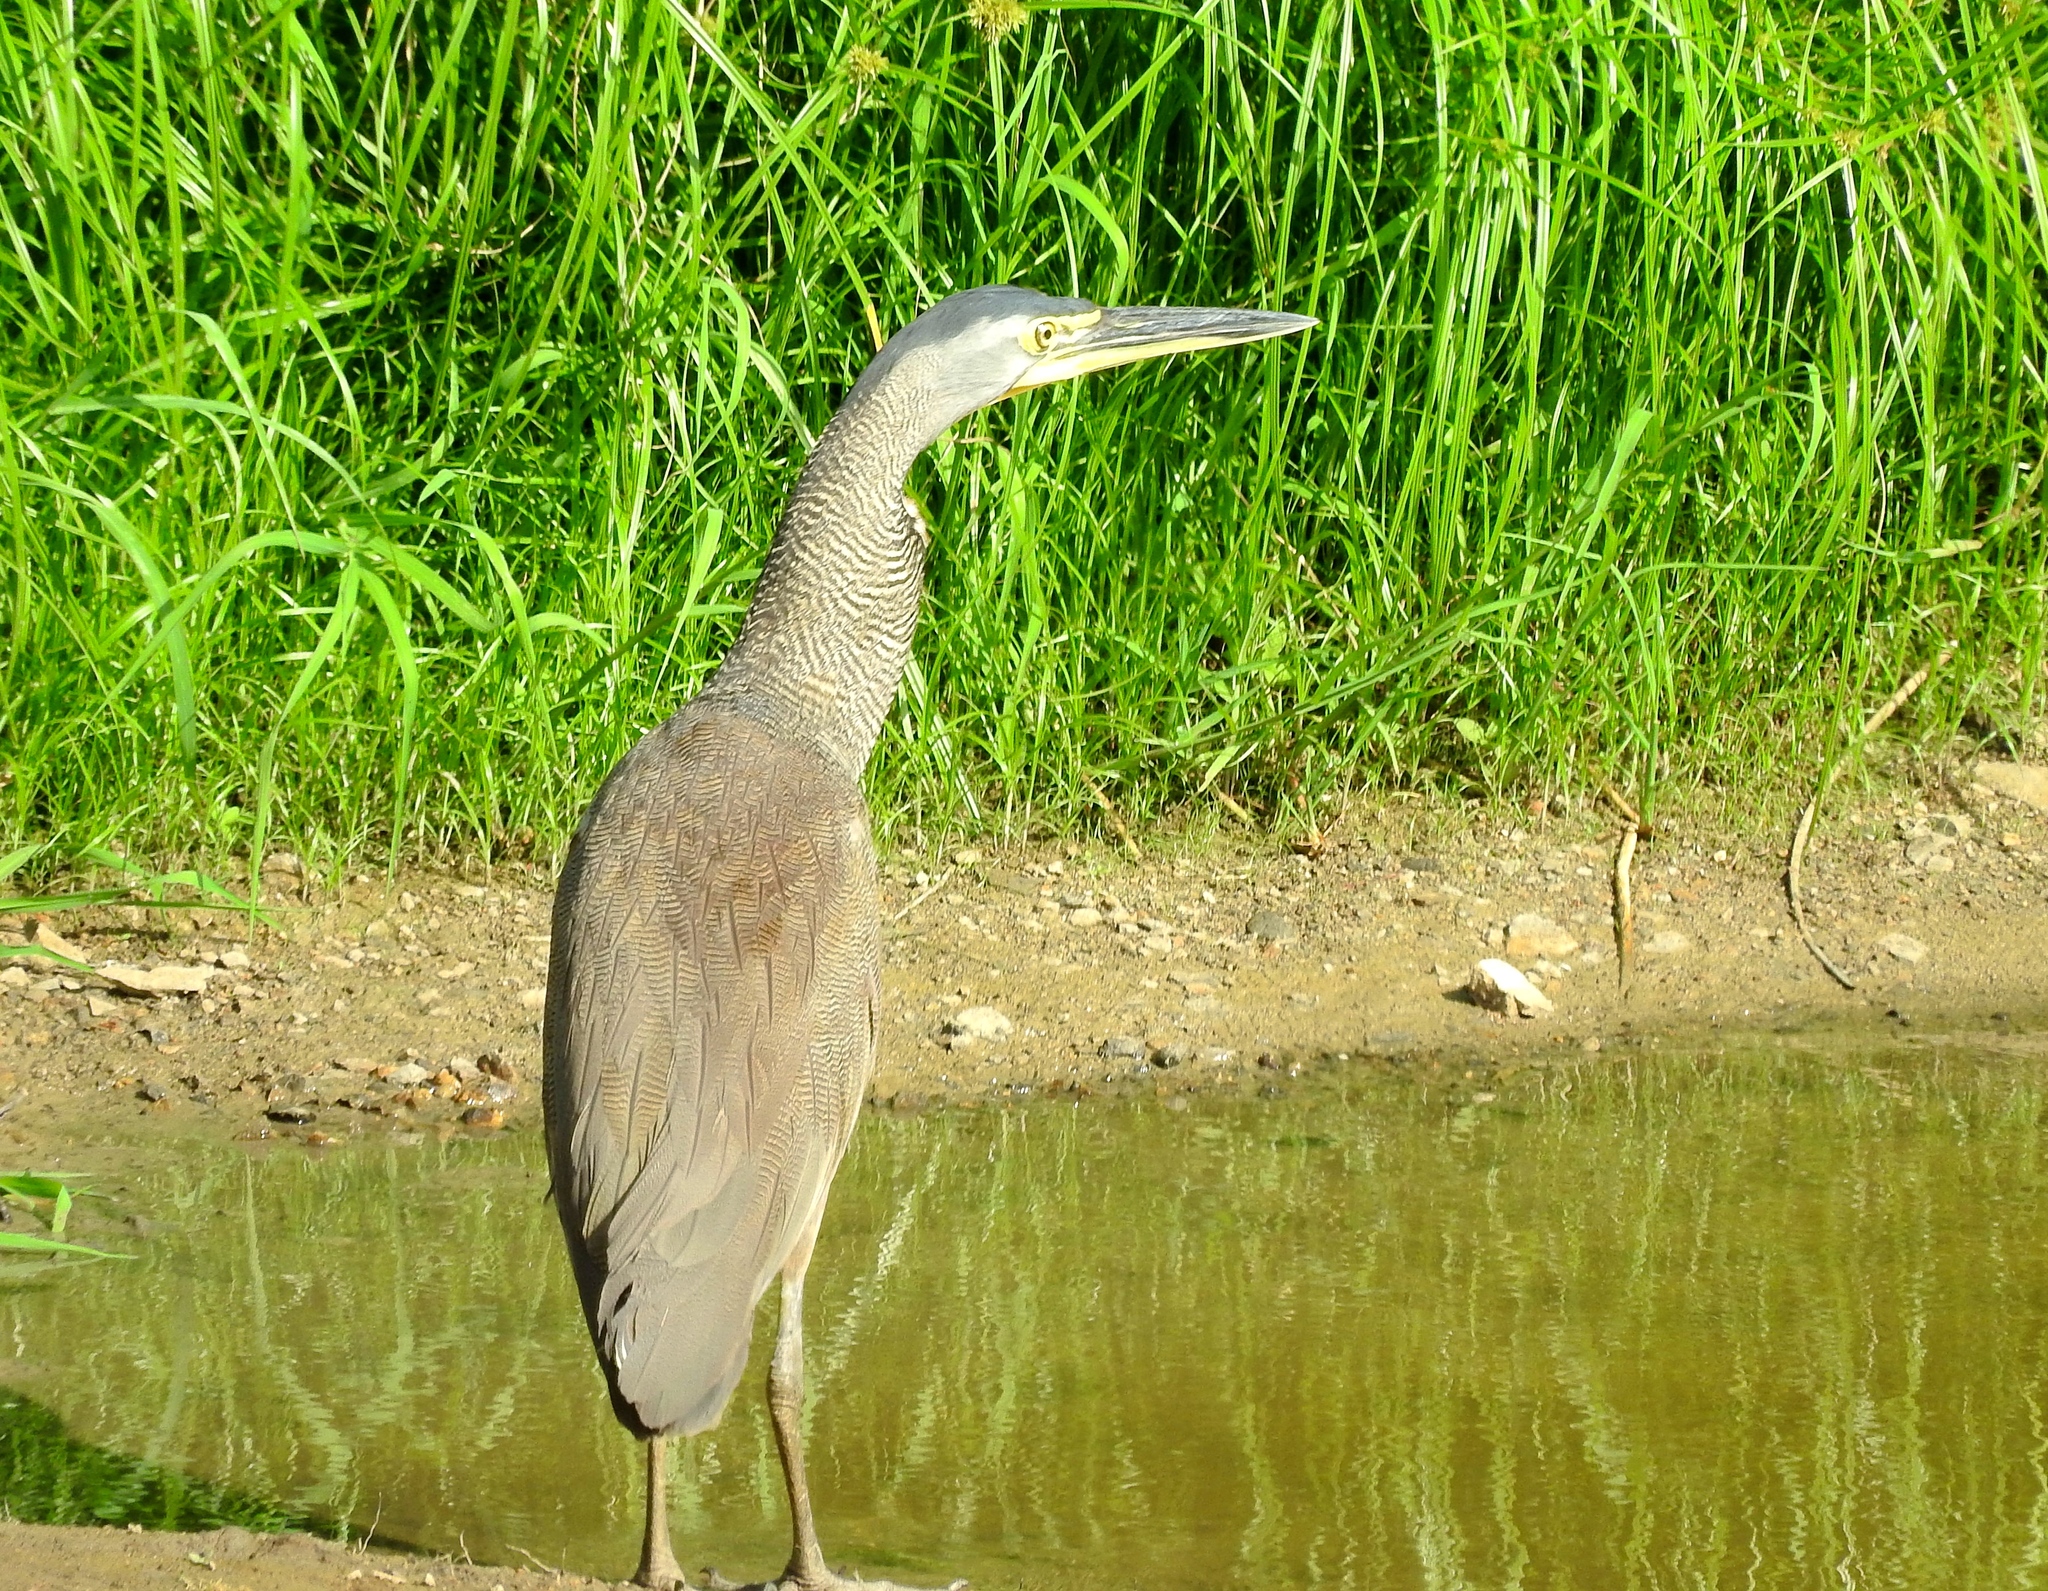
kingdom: Animalia
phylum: Chordata
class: Aves
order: Pelecaniformes
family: Ardeidae
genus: Tigrisoma
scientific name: Tigrisoma mexicanum
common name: Bare-throated tiger-heron
